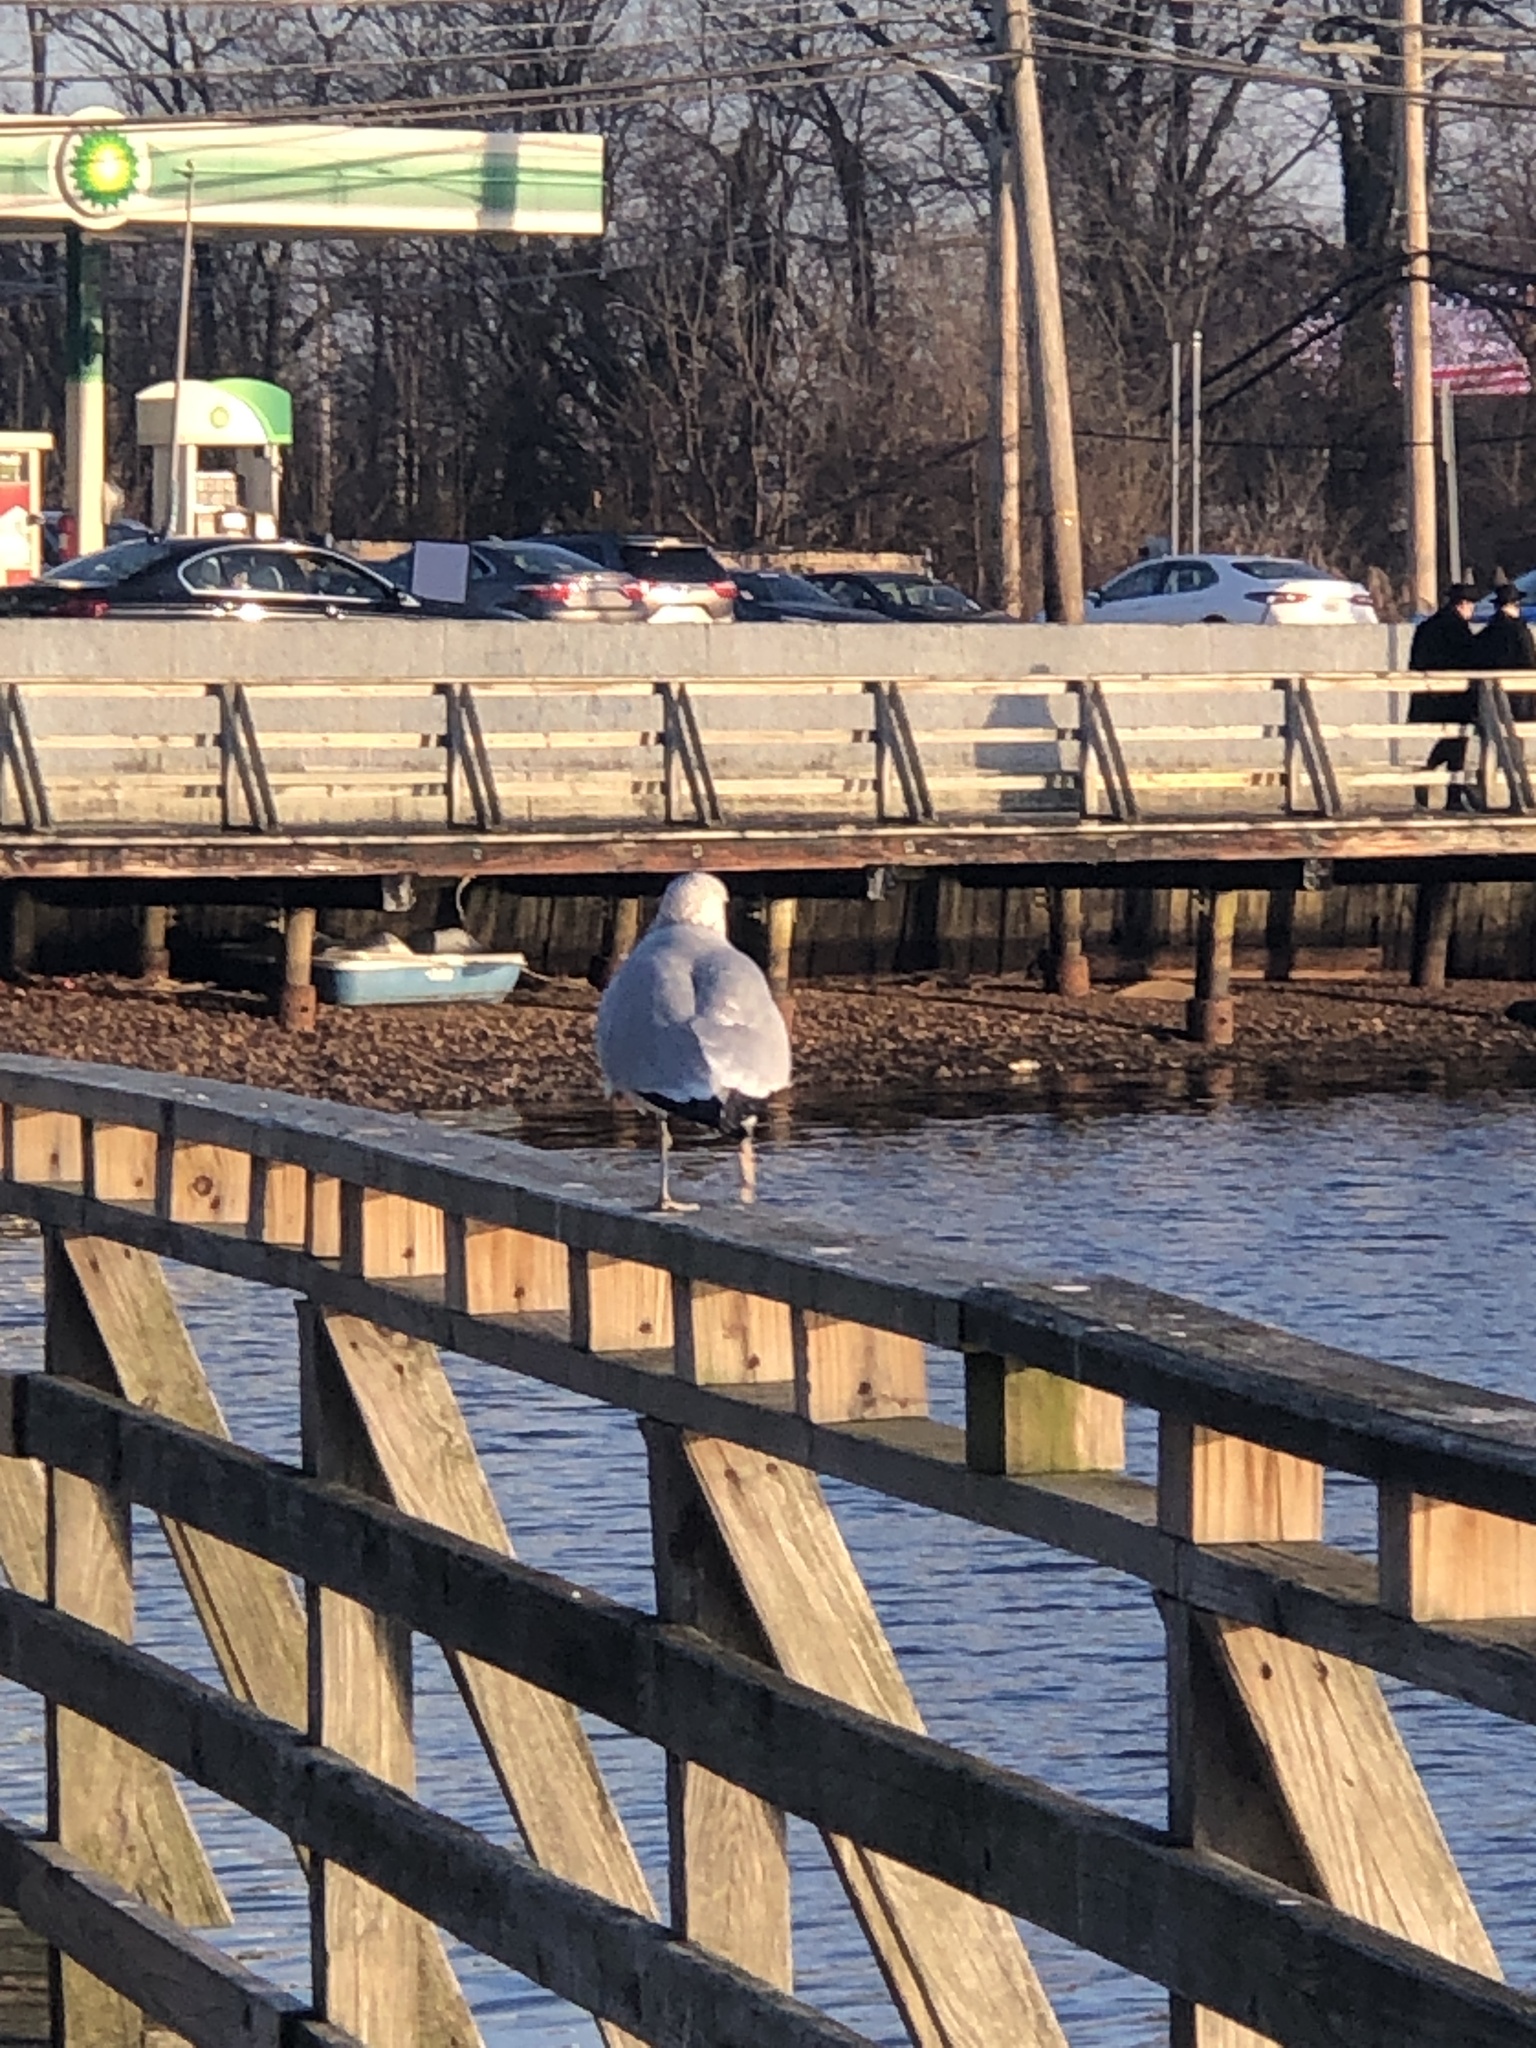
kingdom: Animalia
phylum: Chordata
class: Aves
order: Charadriiformes
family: Laridae
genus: Larus
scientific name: Larus delawarensis
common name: Ring-billed gull
